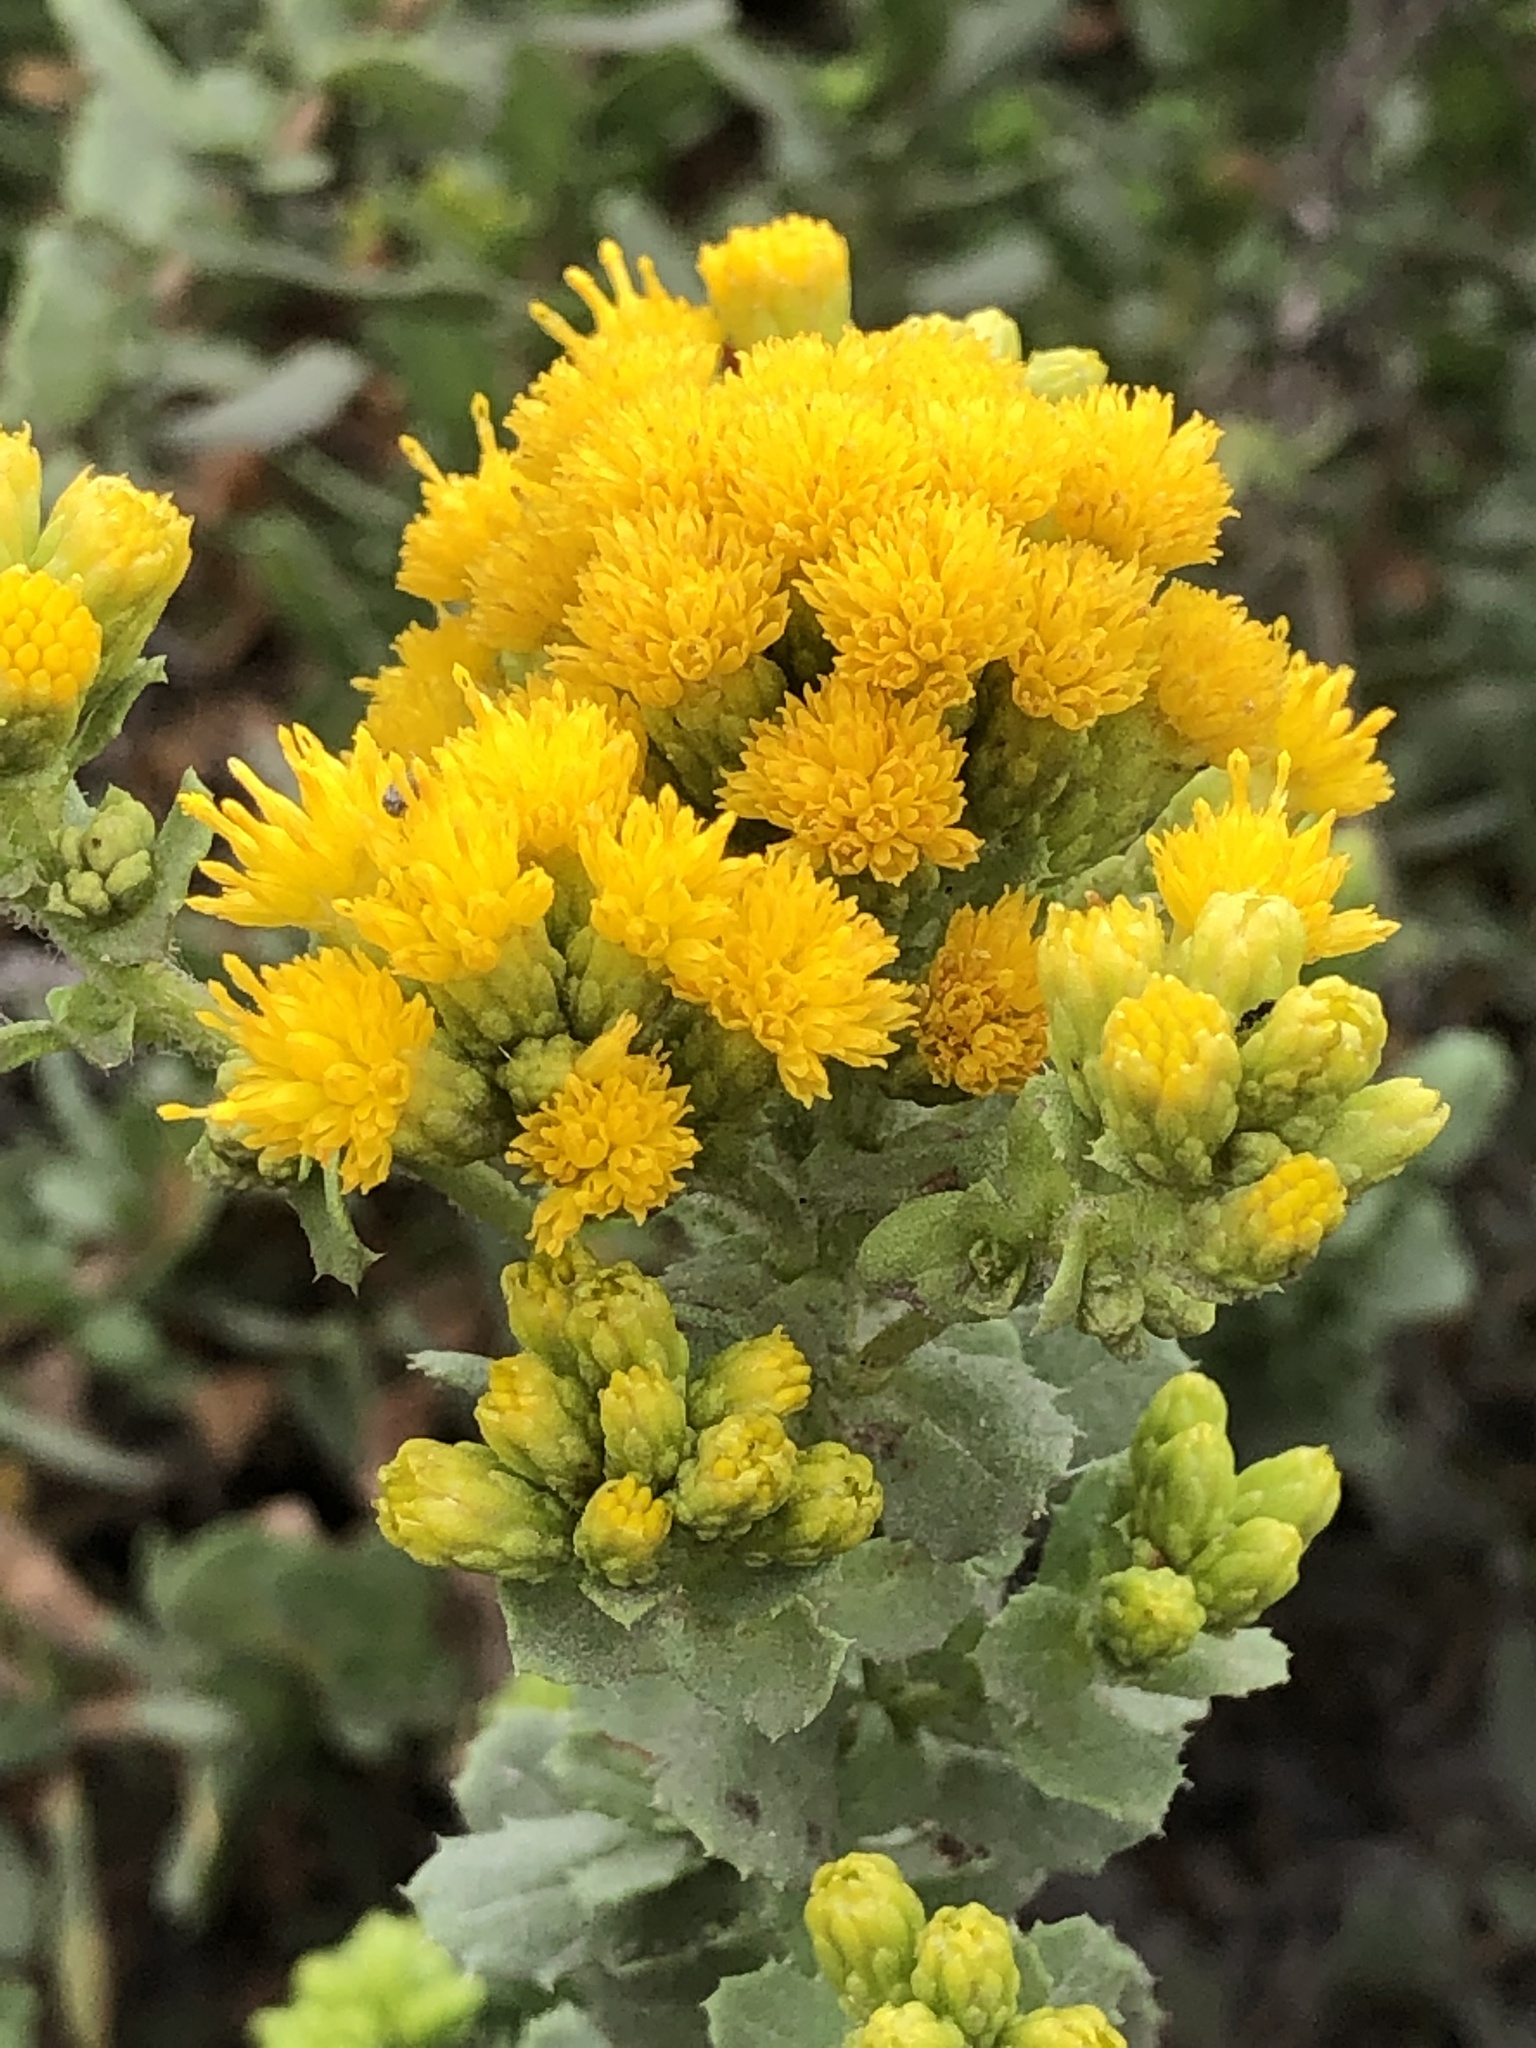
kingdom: Plantae
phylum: Tracheophyta
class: Magnoliopsida
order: Asterales
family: Asteraceae
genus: Isocoma
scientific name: Isocoma menziesii
